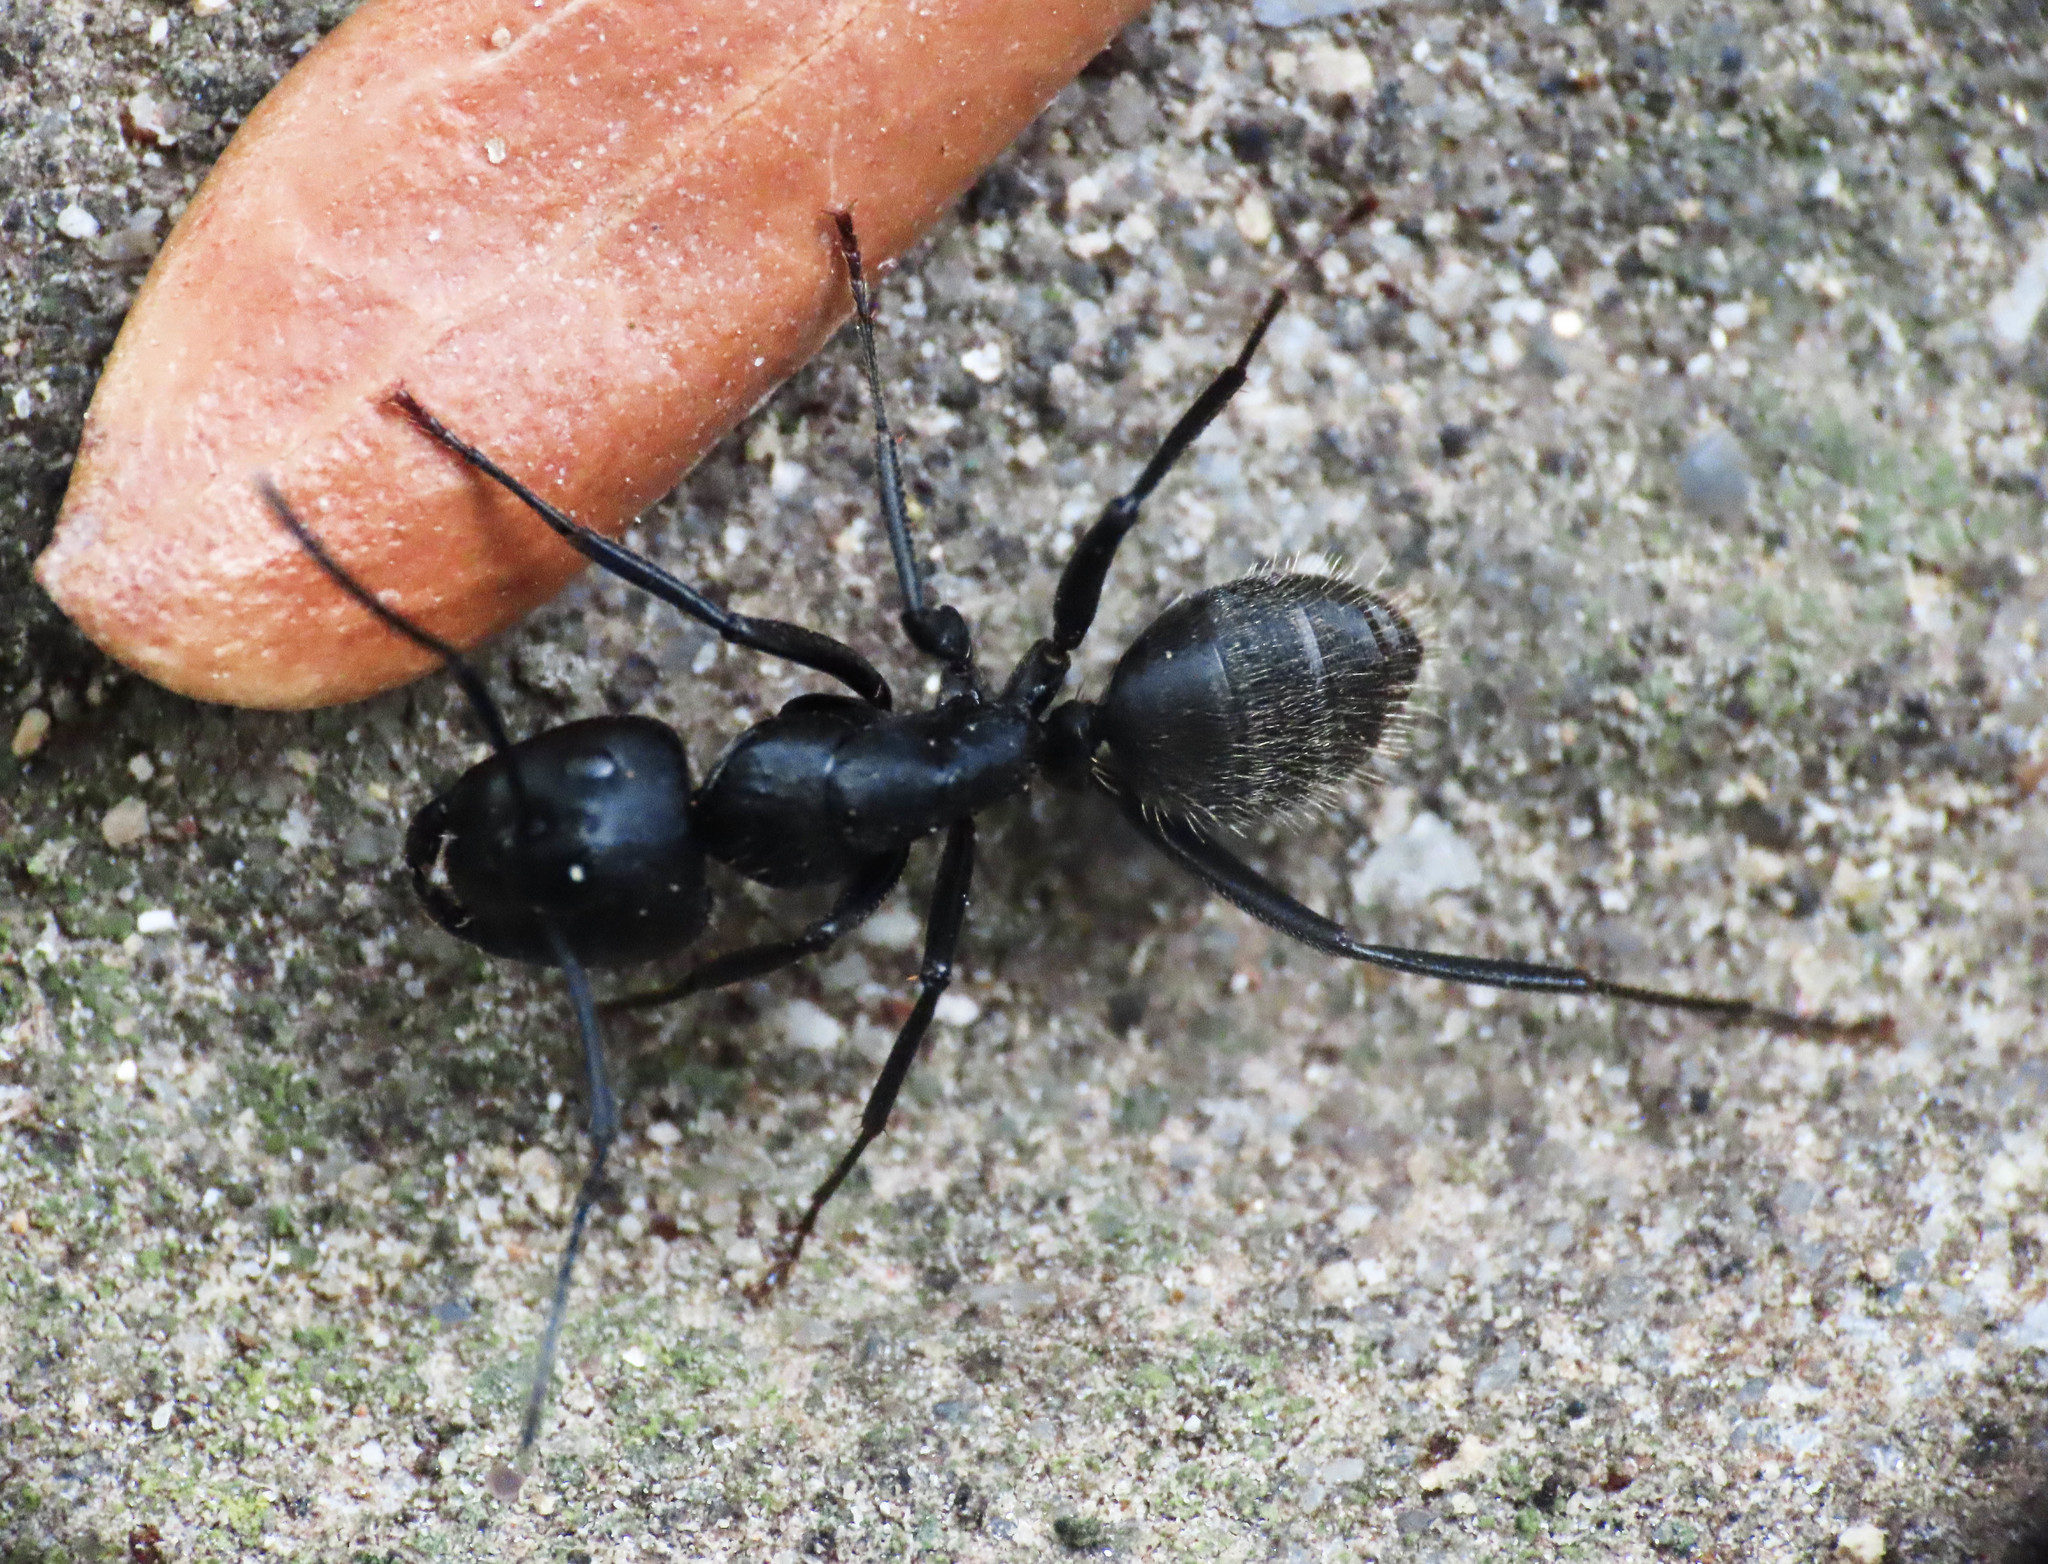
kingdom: Animalia
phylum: Arthropoda
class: Insecta
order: Hymenoptera
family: Formicidae
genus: Camponotus
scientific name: Camponotus vagus
